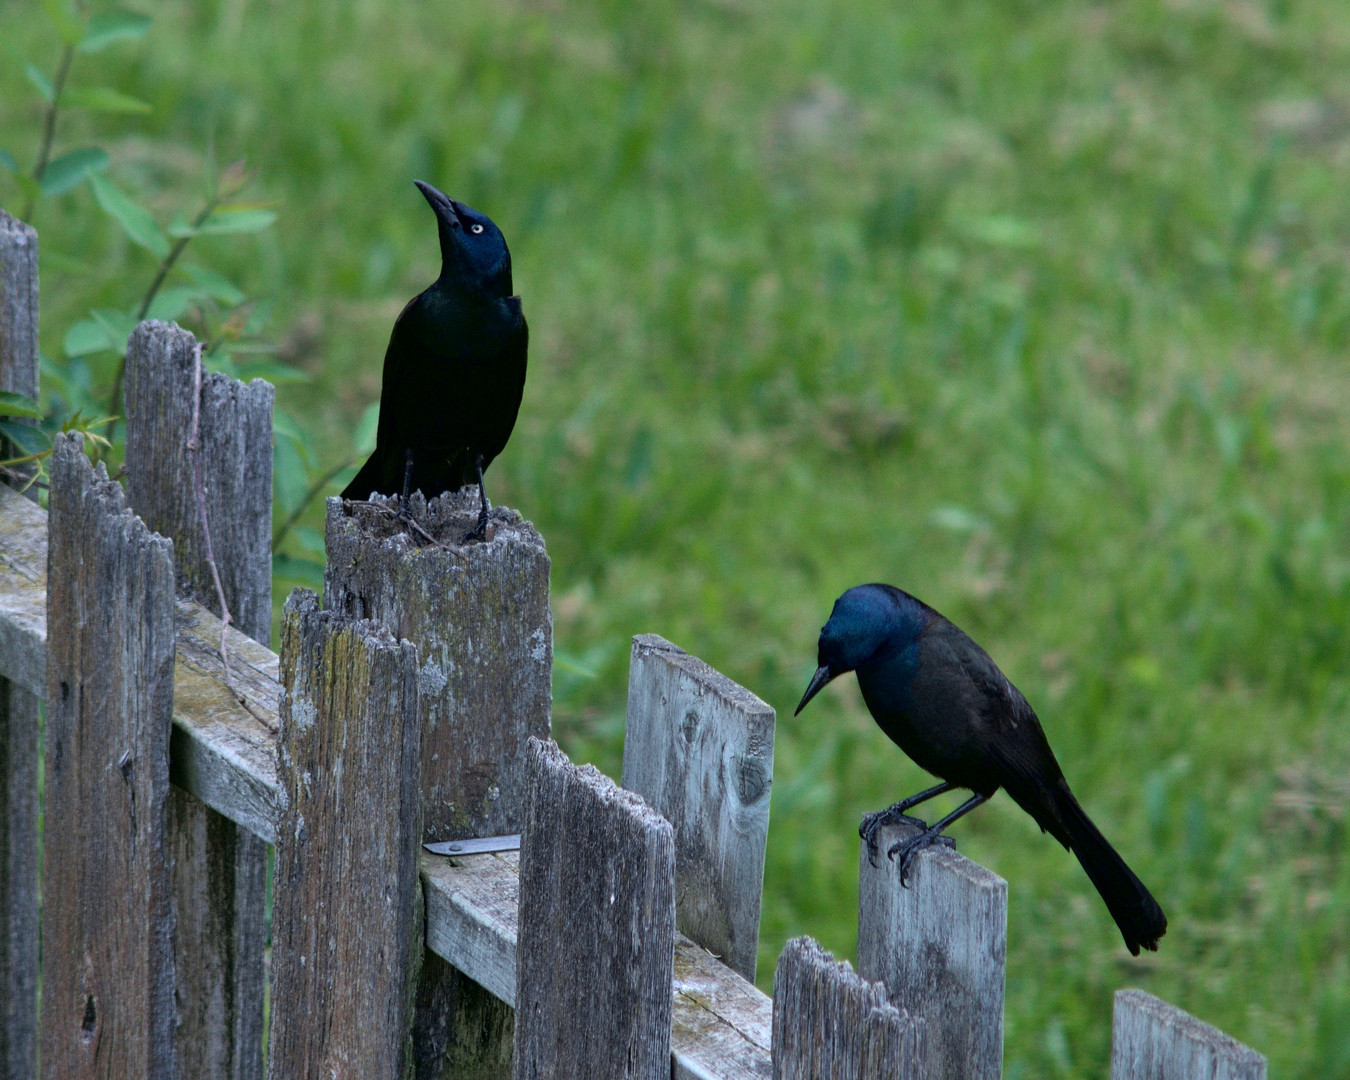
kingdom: Animalia
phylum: Chordata
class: Aves
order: Passeriformes
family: Icteridae
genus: Quiscalus
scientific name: Quiscalus quiscula
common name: Common grackle
